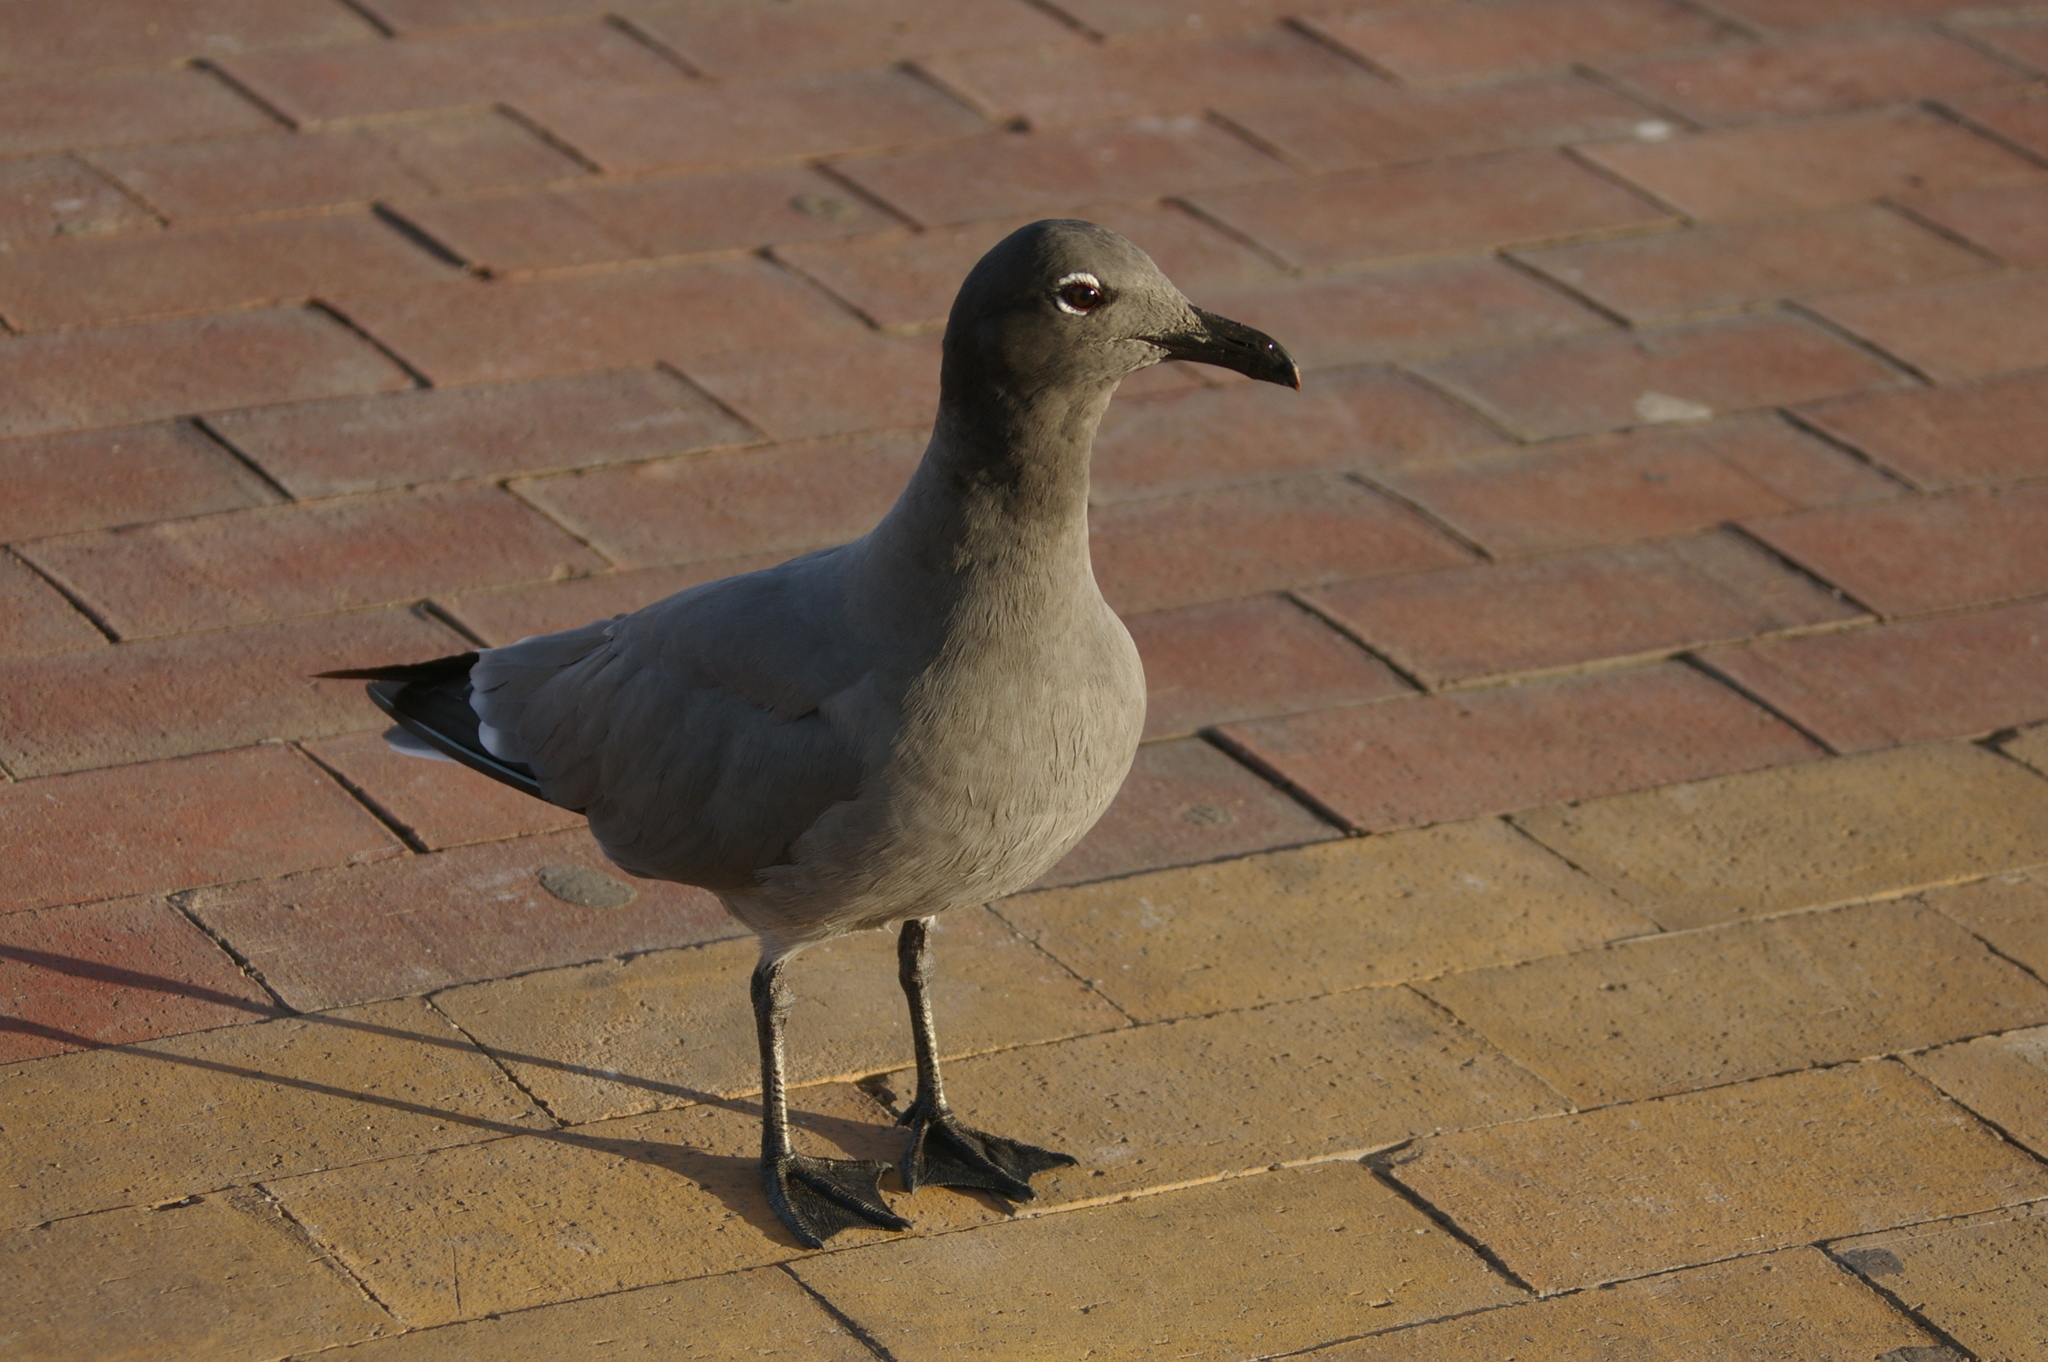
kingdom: Animalia
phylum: Chordata
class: Aves
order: Charadriiformes
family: Laridae
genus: Leucophaeus
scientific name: Leucophaeus fuliginosus
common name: Lava gull
